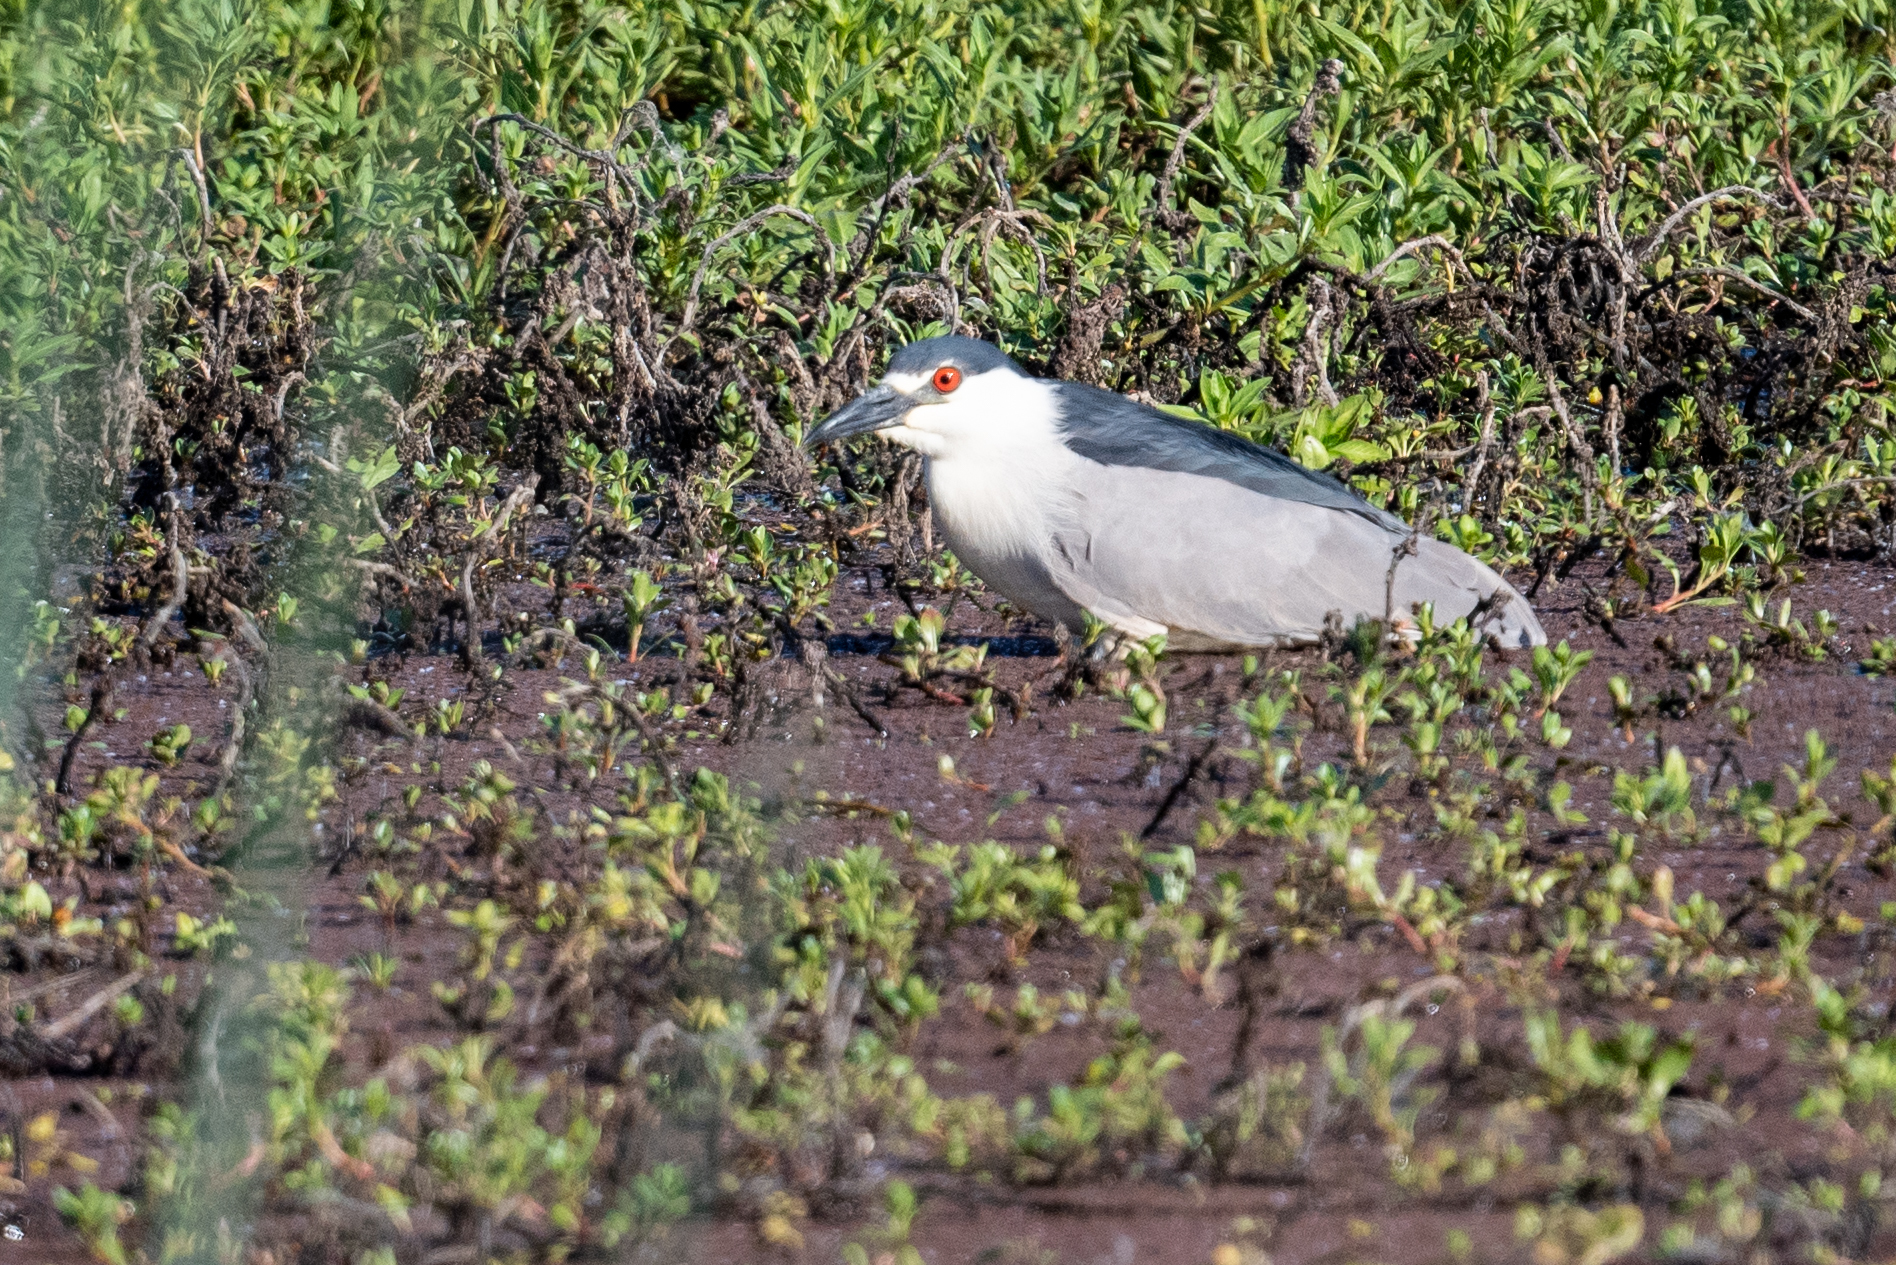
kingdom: Animalia
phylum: Chordata
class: Aves
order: Pelecaniformes
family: Ardeidae
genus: Nycticorax
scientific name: Nycticorax nycticorax
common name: Black-crowned night heron
